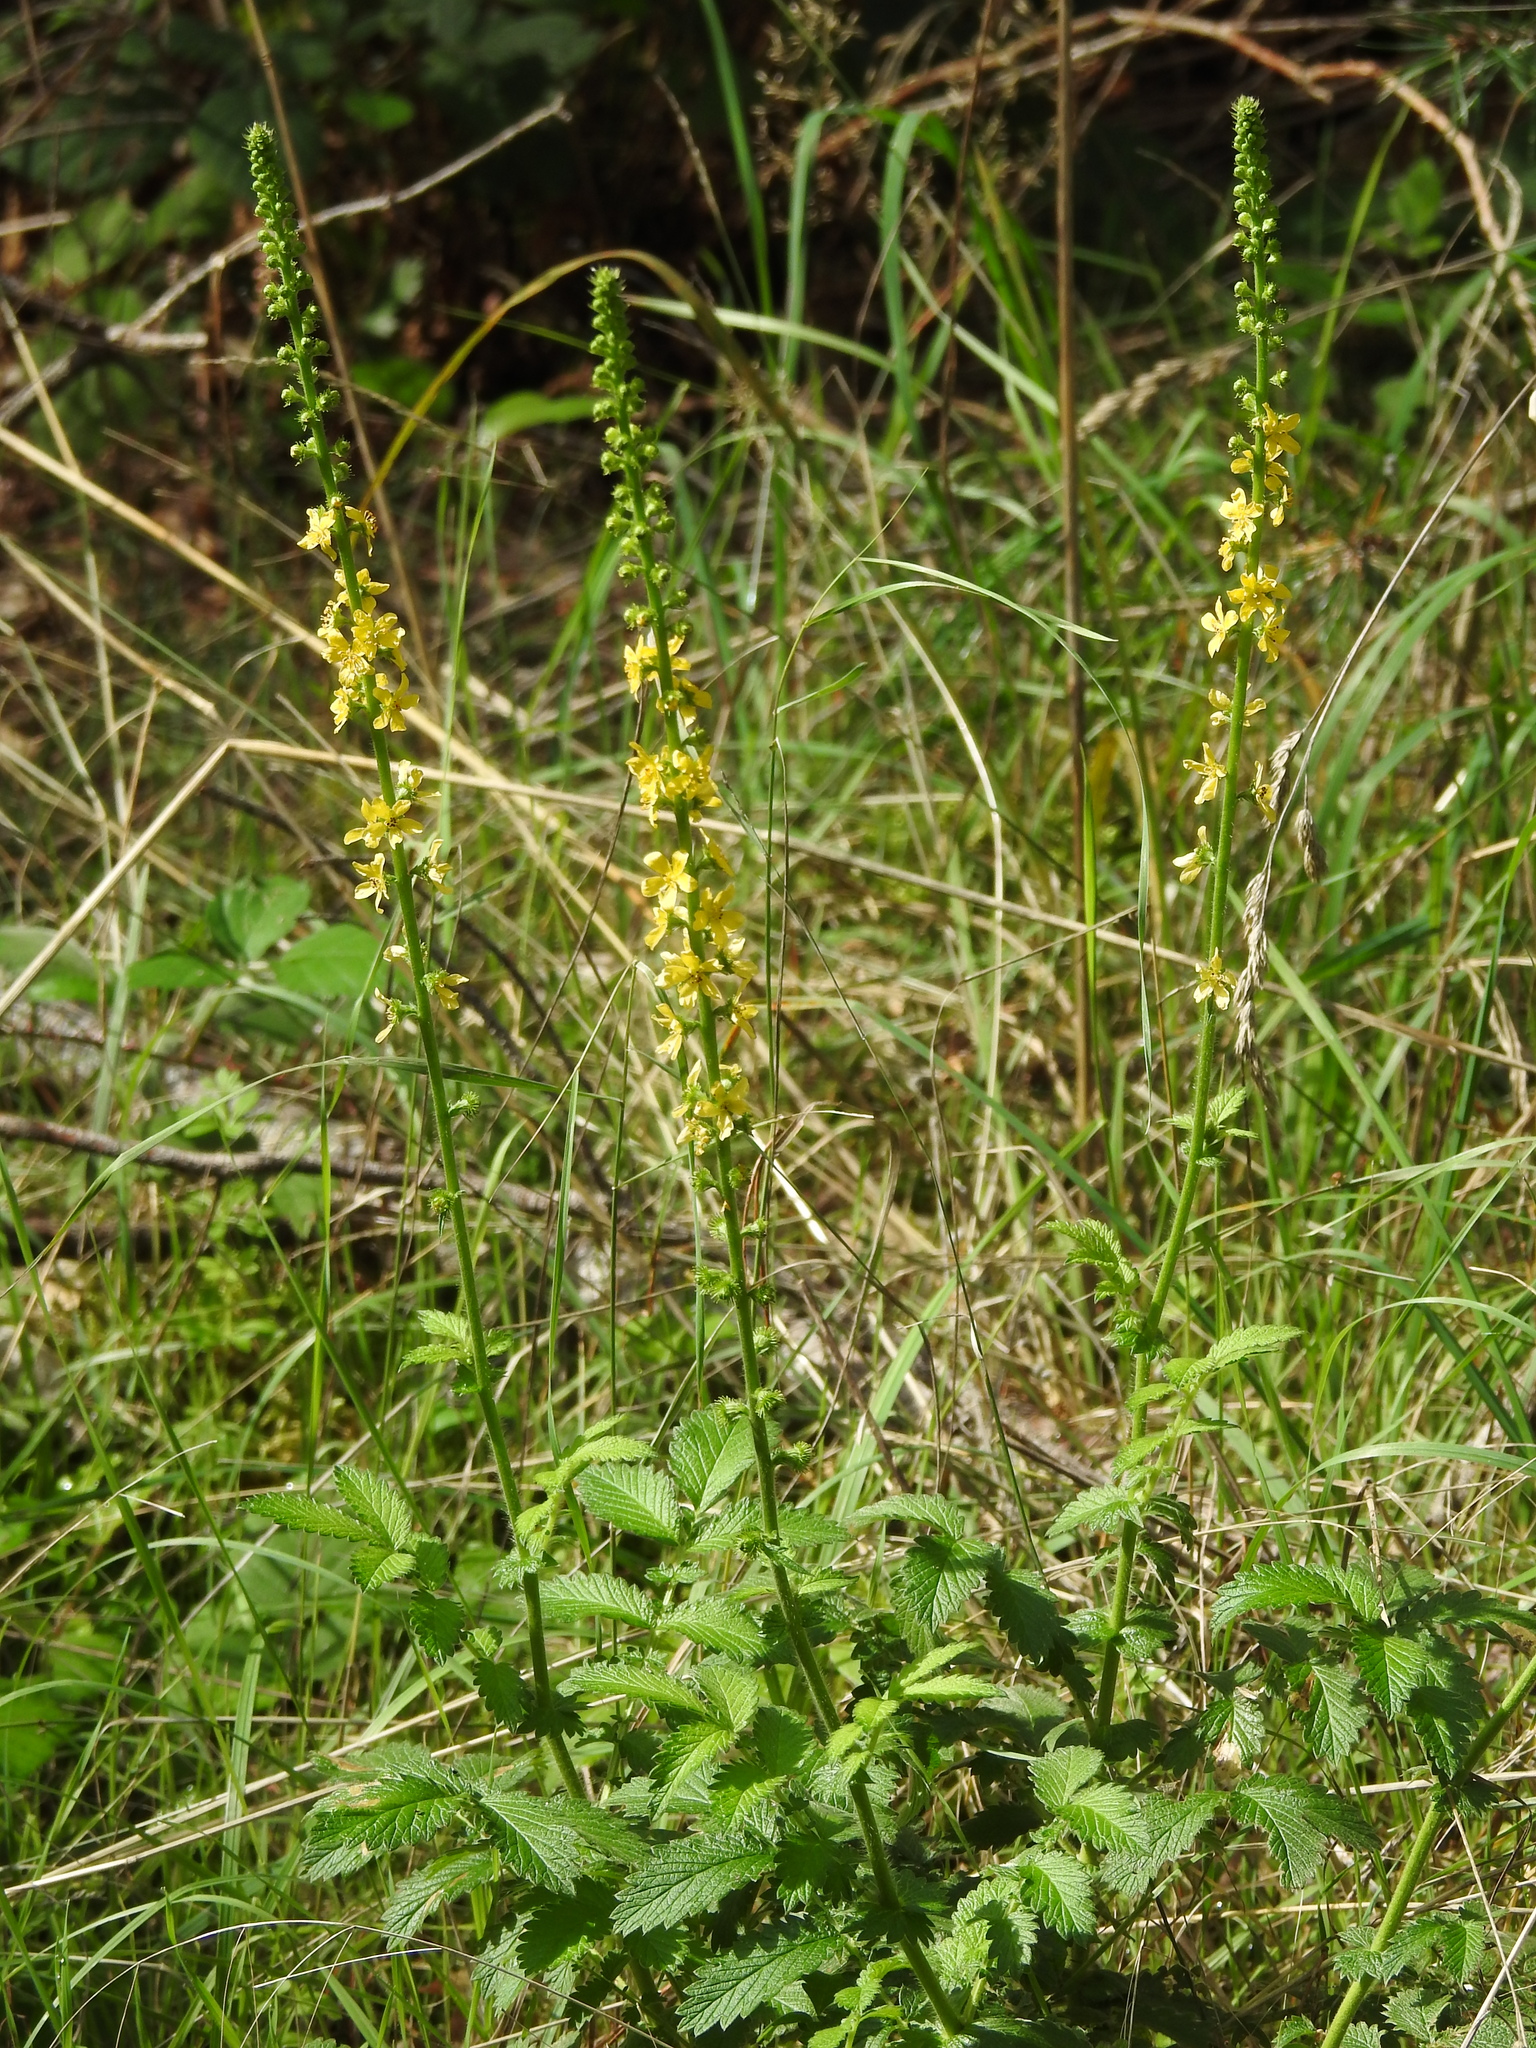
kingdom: Plantae
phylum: Tracheophyta
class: Magnoliopsida
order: Rosales
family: Rosaceae
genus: Agrimonia
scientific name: Agrimonia eupatoria
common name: Agrimony
